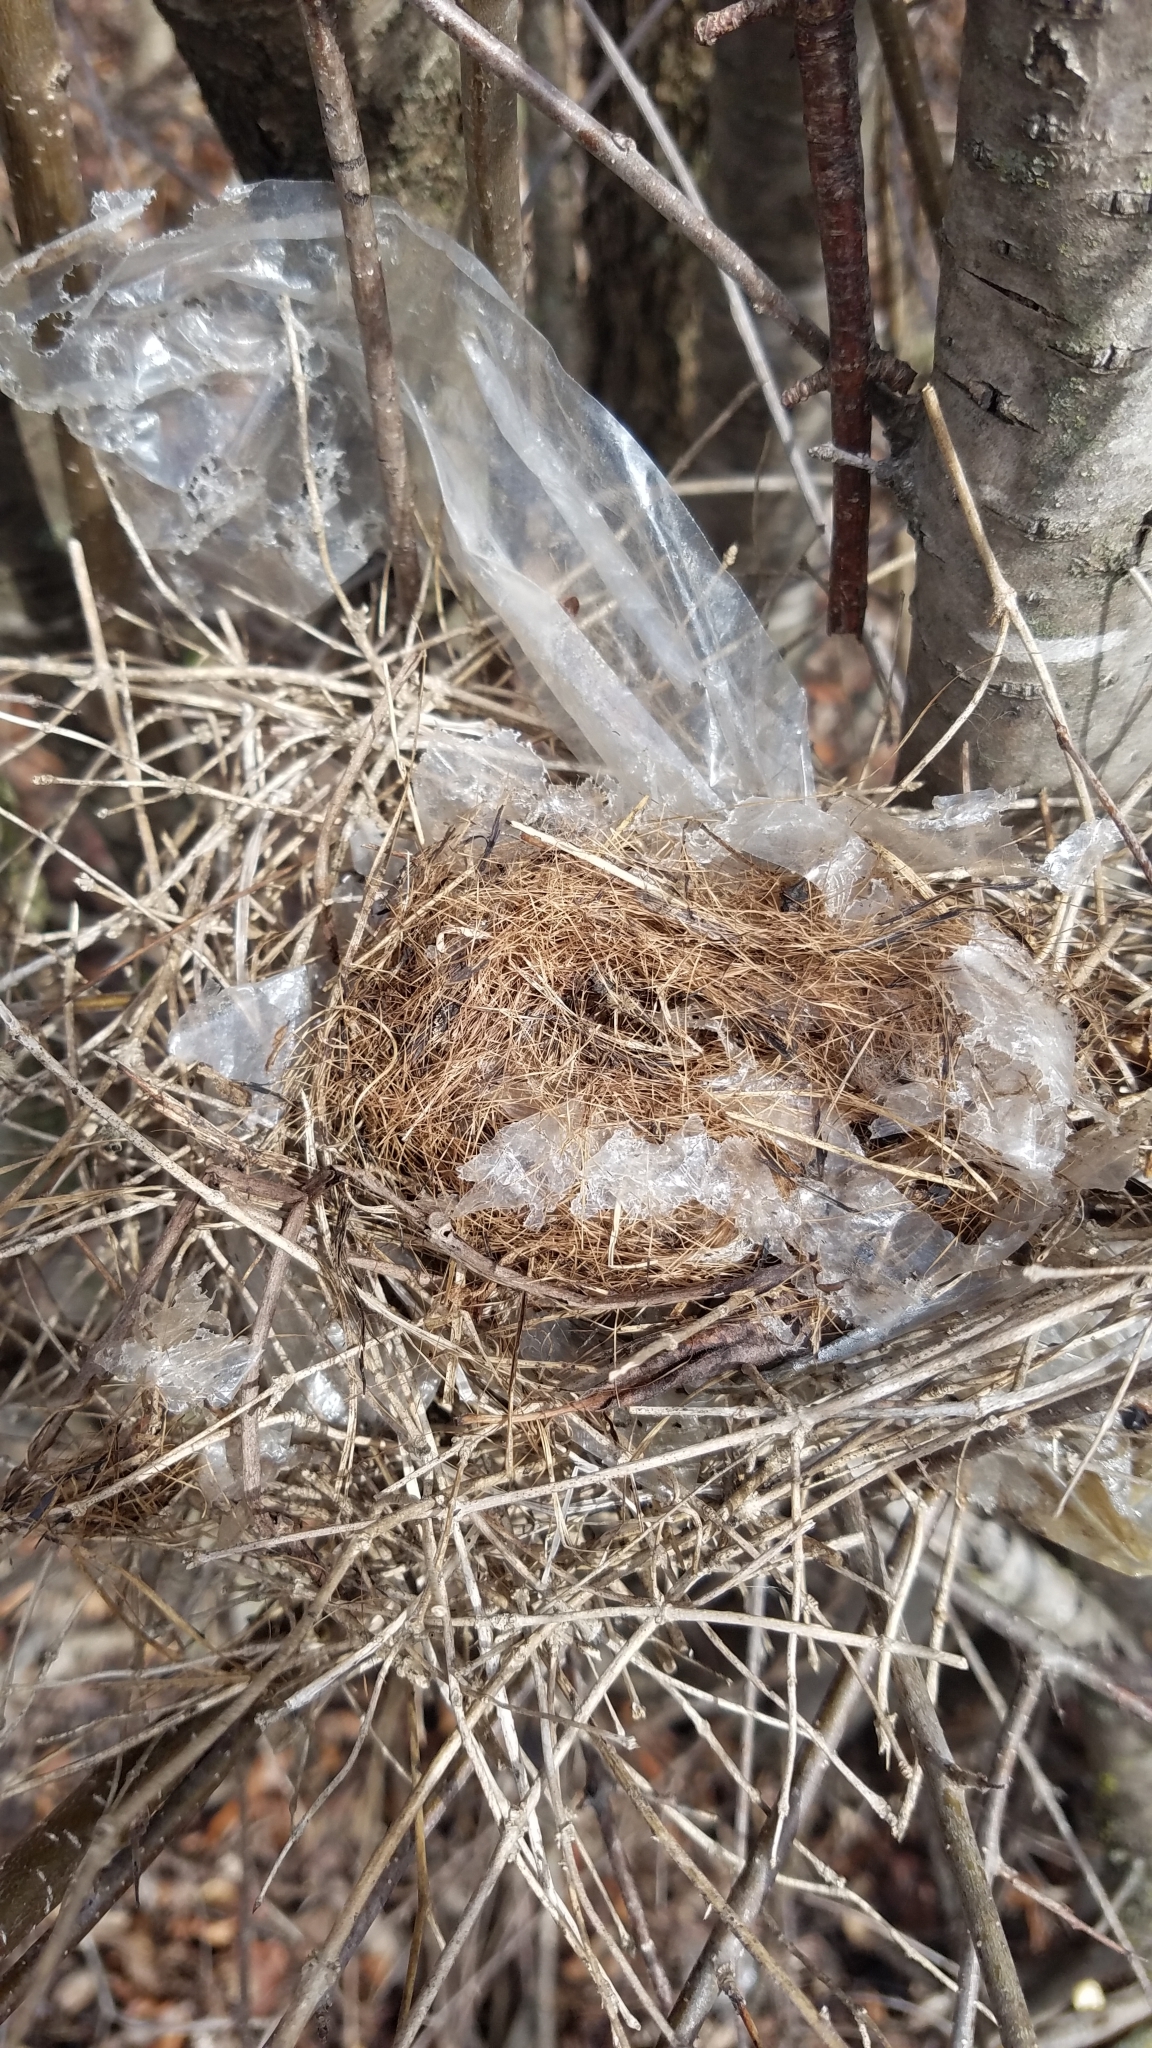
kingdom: Animalia
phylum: Chordata
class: Aves
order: Passeriformes
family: Cardinalidae
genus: Cardinalis
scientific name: Cardinalis cardinalis
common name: Northern cardinal
